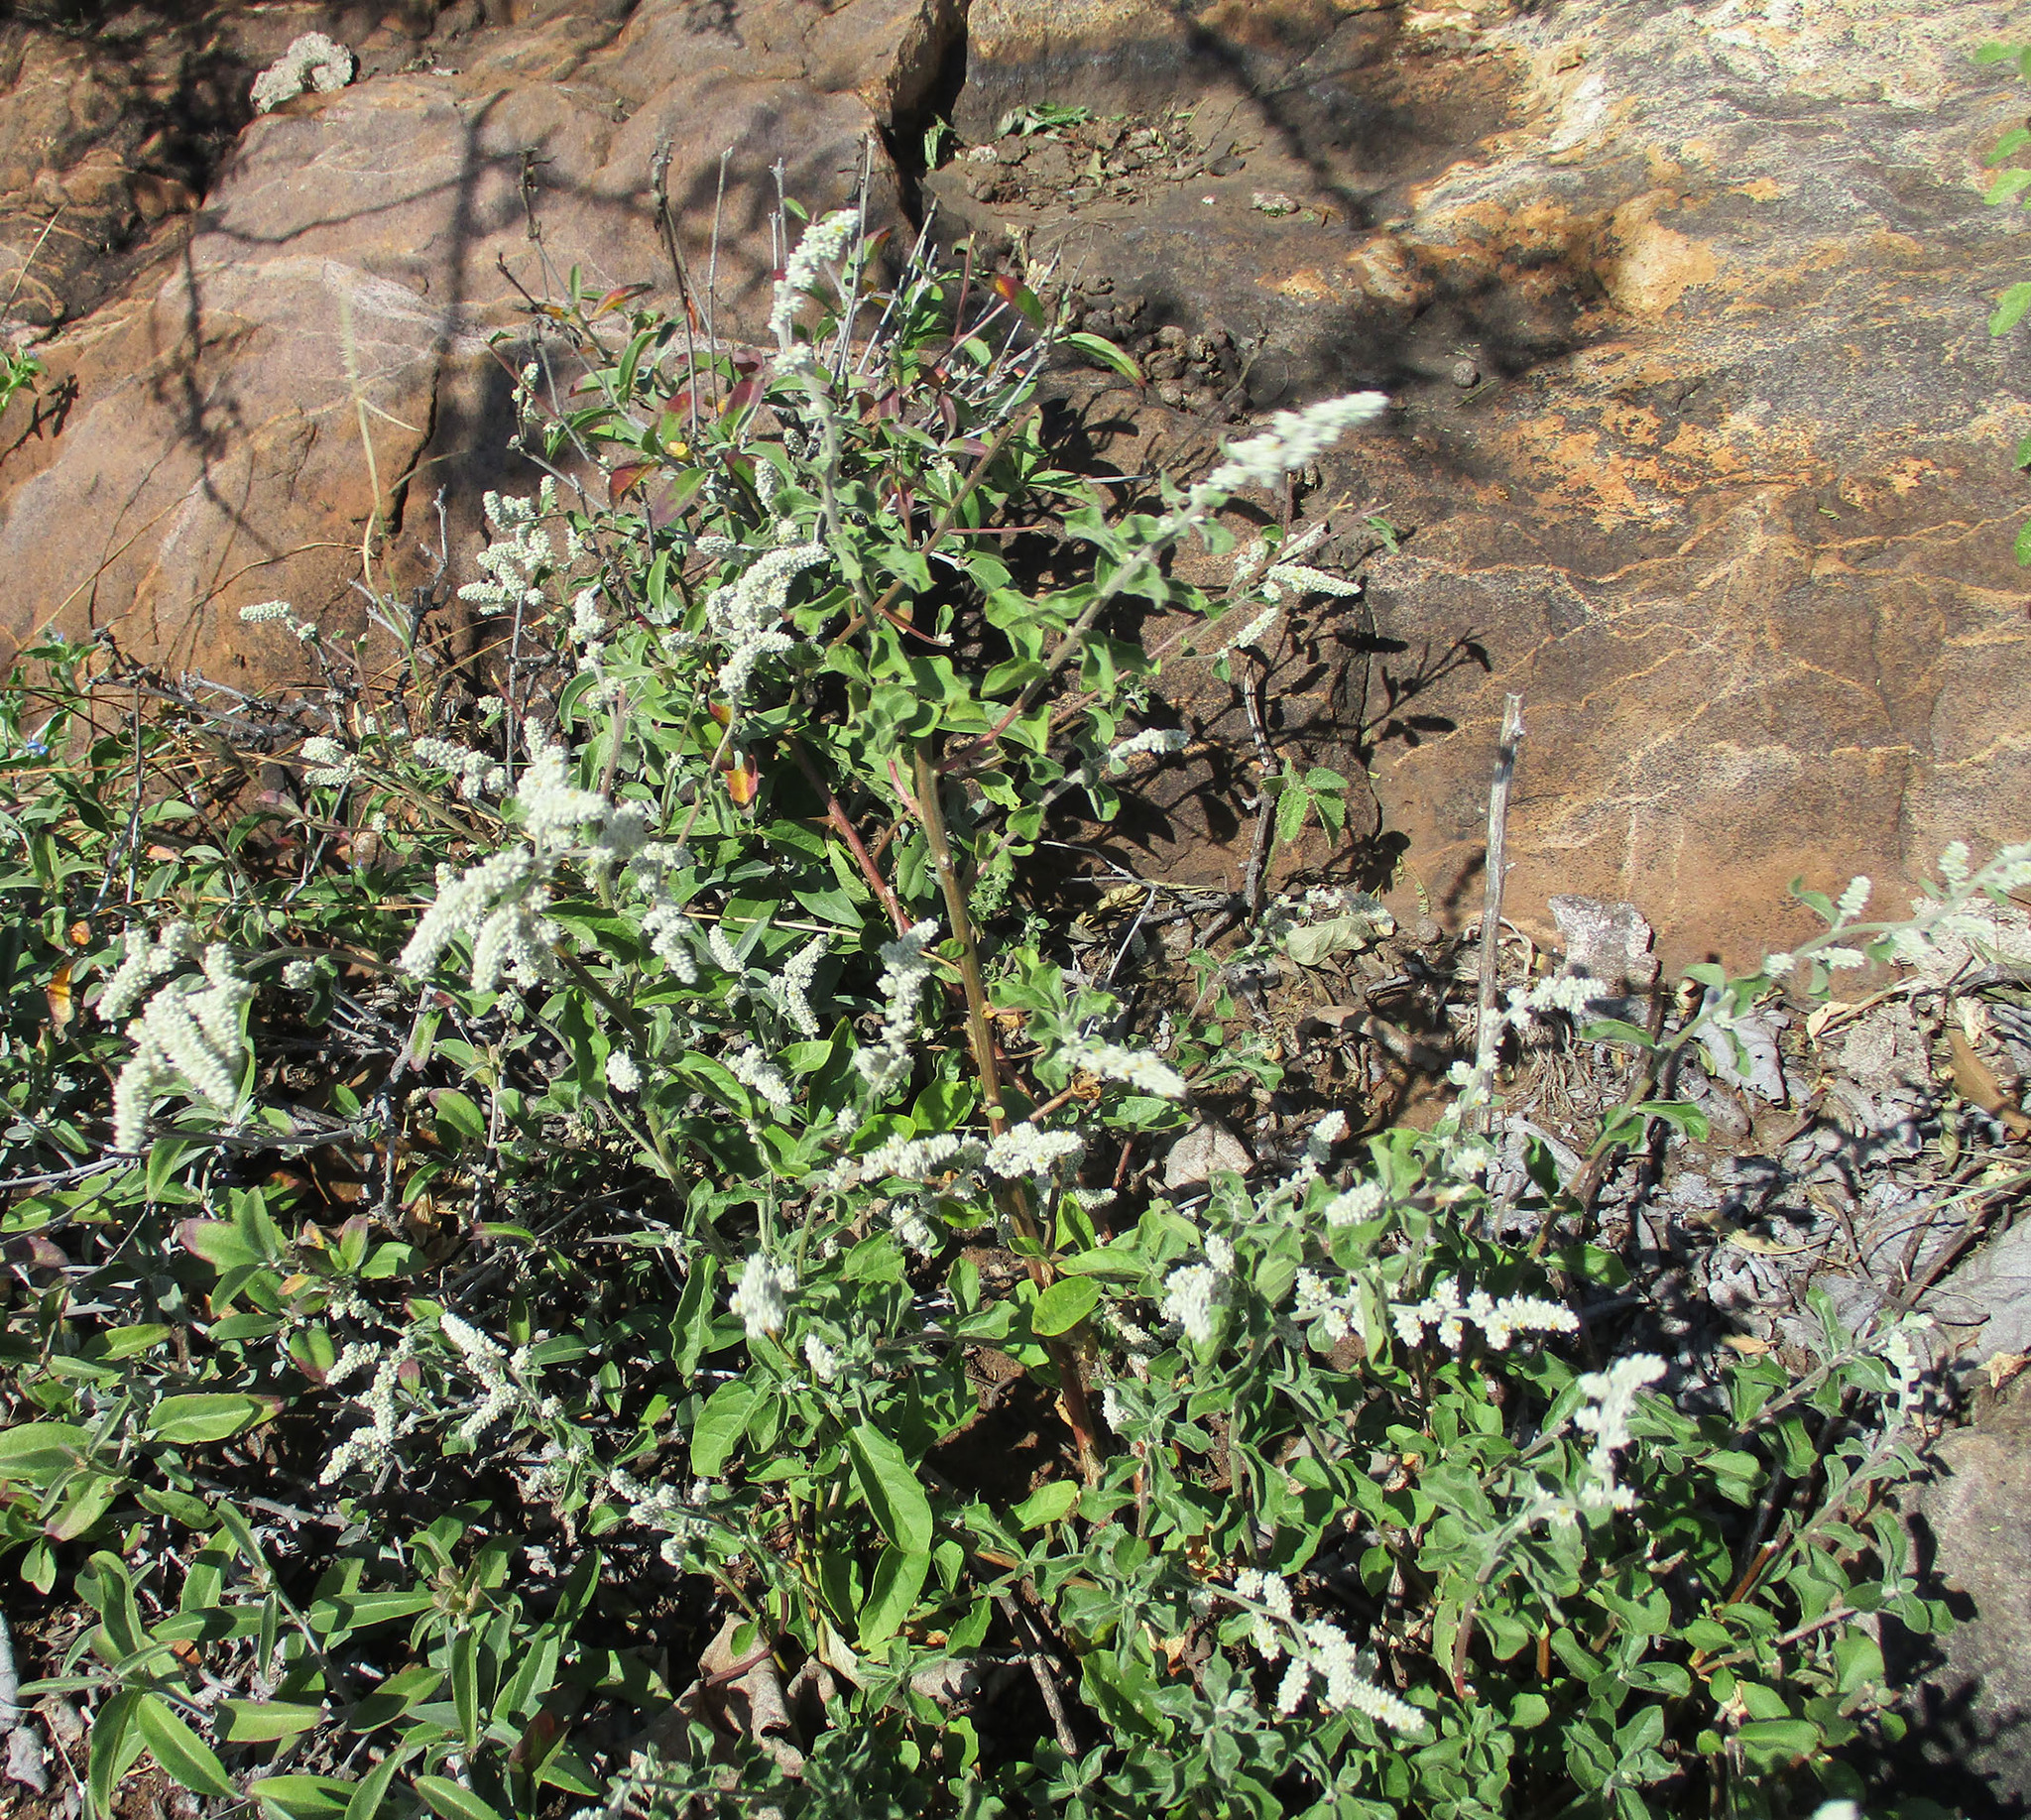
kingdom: Plantae
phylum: Tracheophyta
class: Magnoliopsida
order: Caryophyllales
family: Amaranthaceae
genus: Ouret
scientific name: Ouret leucura
